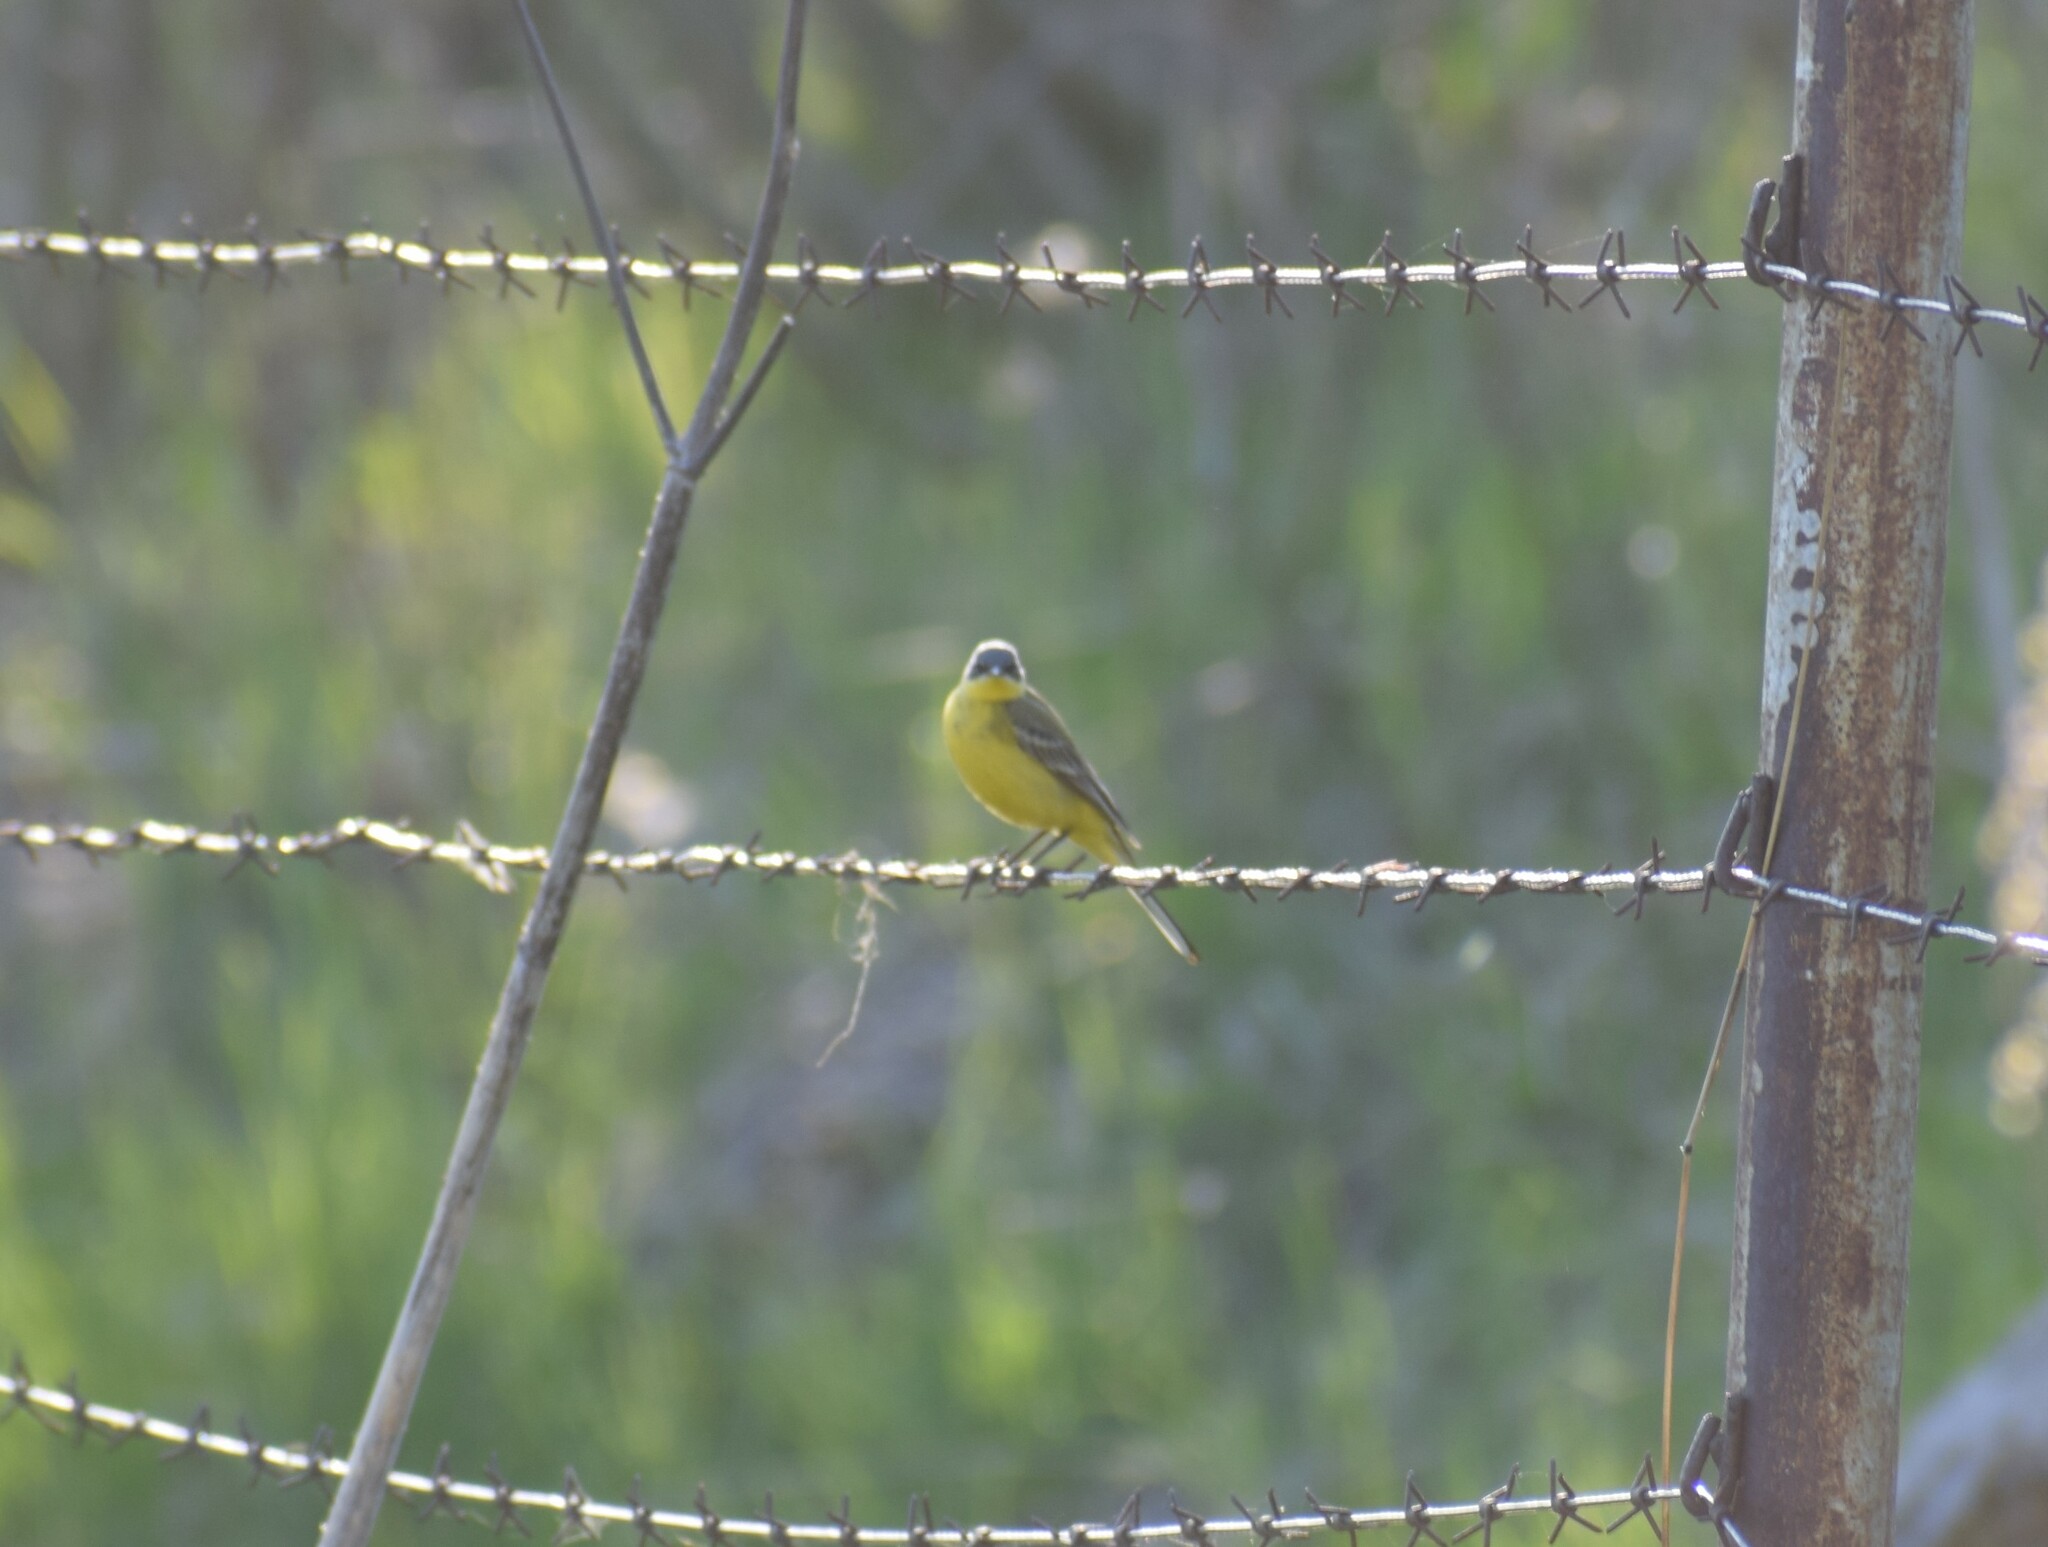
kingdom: Animalia
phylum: Chordata
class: Aves
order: Passeriformes
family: Motacillidae
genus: Motacilla
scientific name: Motacilla flava
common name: Western yellow wagtail
